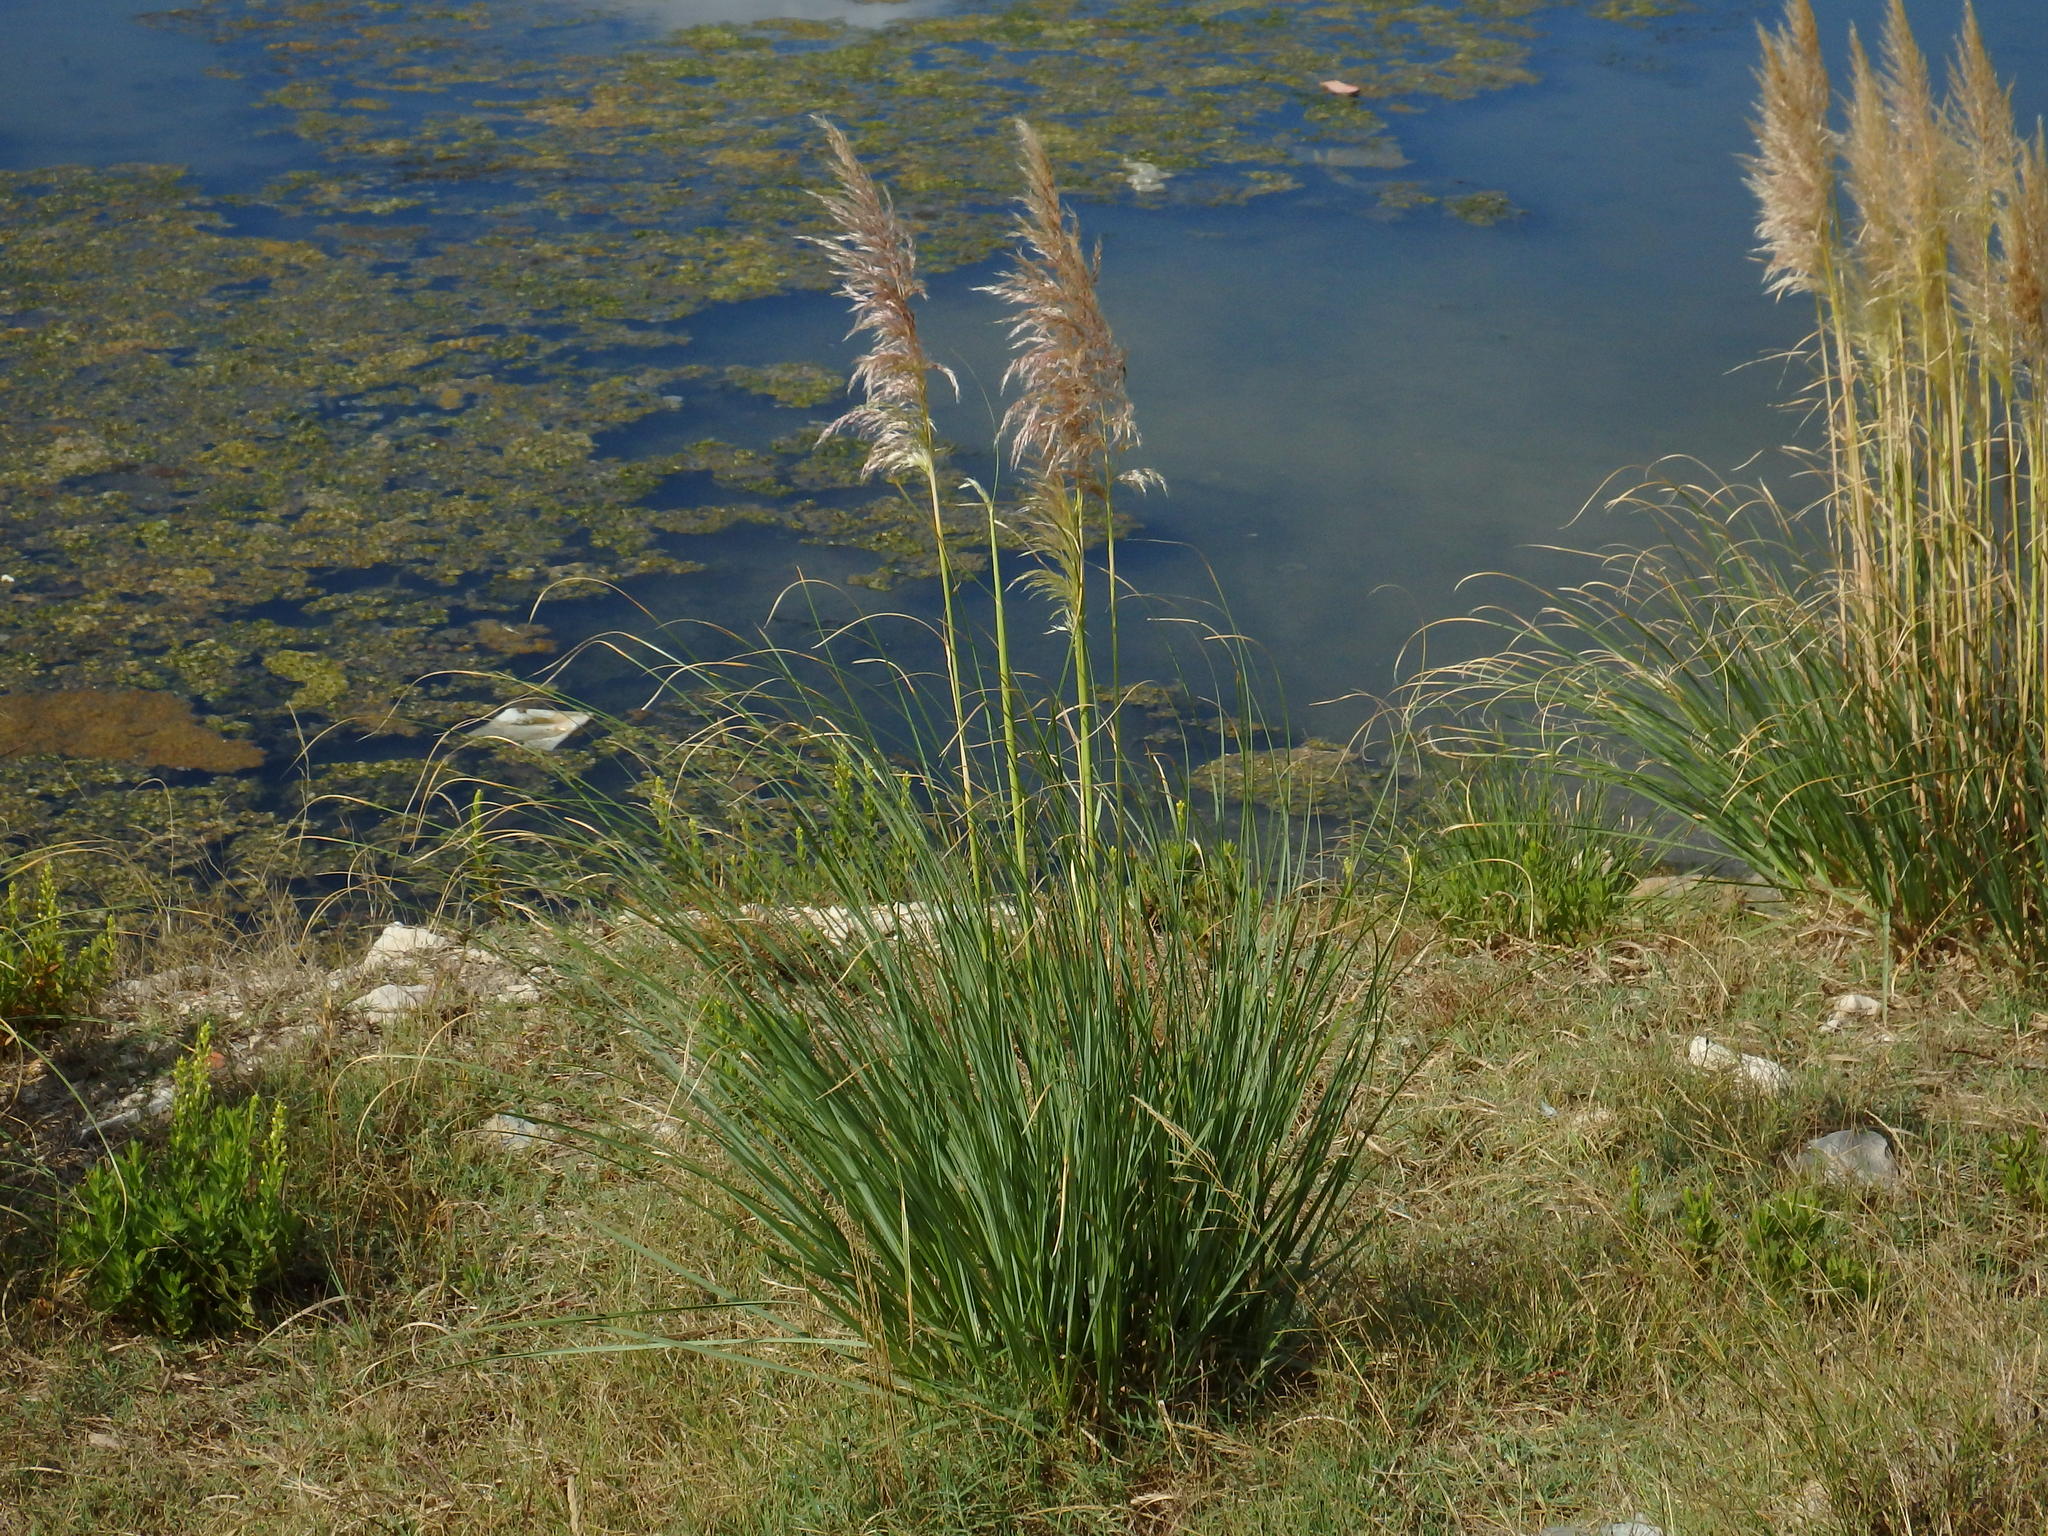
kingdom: Plantae
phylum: Tracheophyta
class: Liliopsida
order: Poales
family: Poaceae
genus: Cortaderia
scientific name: Cortaderia selloana
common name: Uruguayan pampas grass
